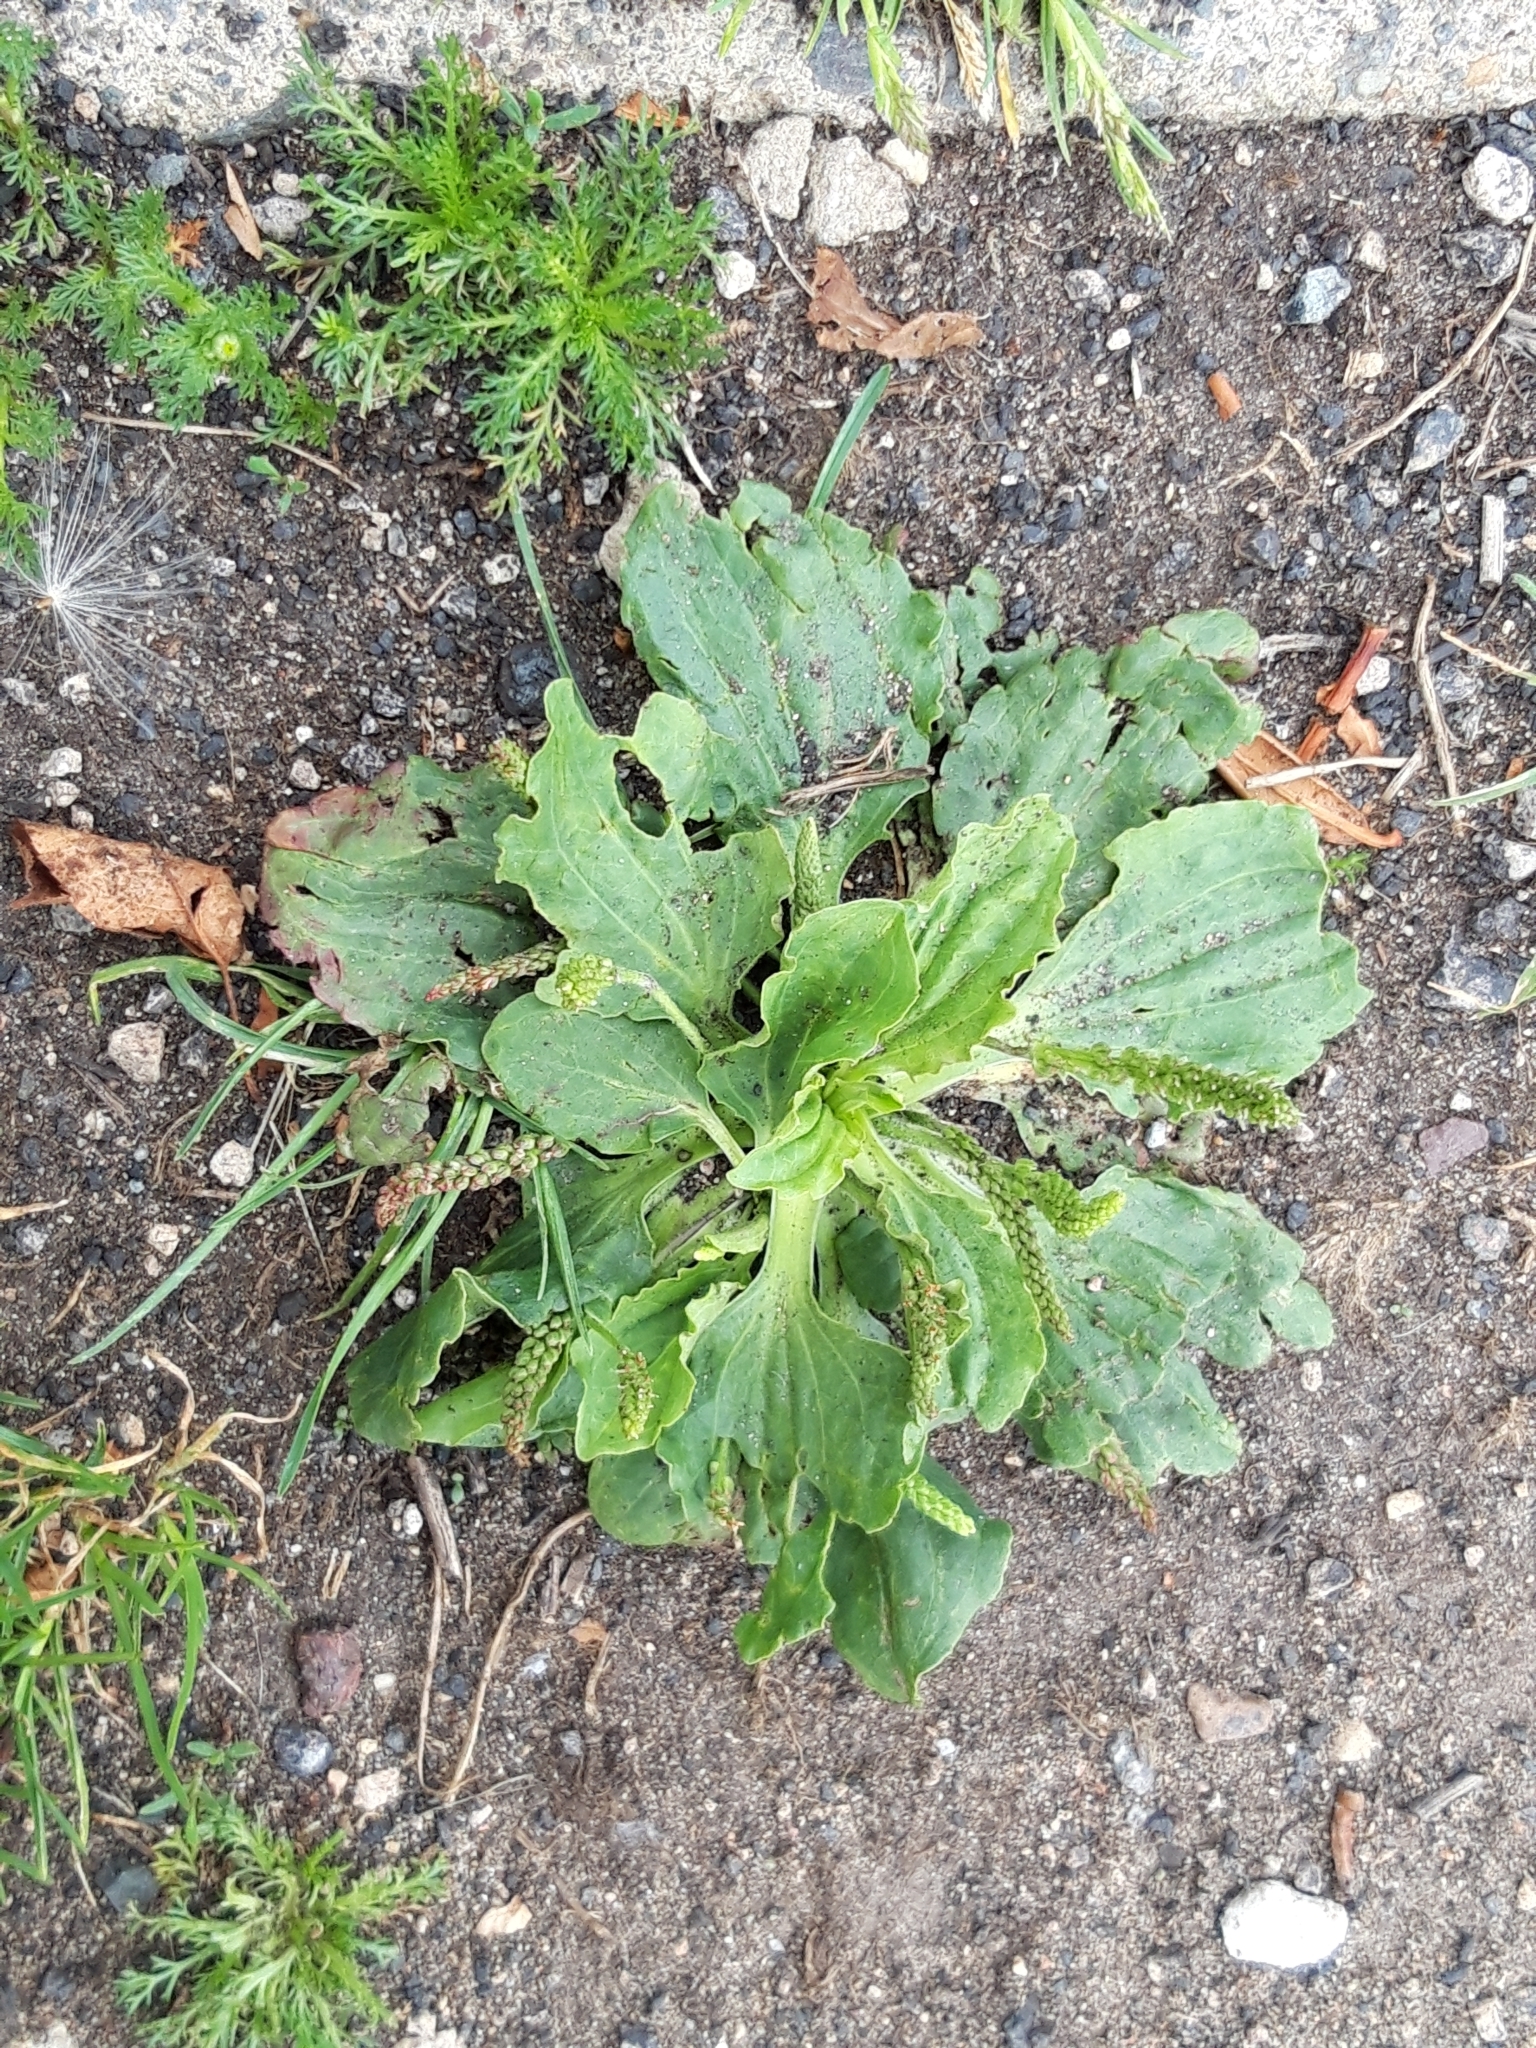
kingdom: Plantae
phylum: Tracheophyta
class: Magnoliopsida
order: Lamiales
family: Plantaginaceae
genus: Plantago
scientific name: Plantago major
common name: Common plantain
